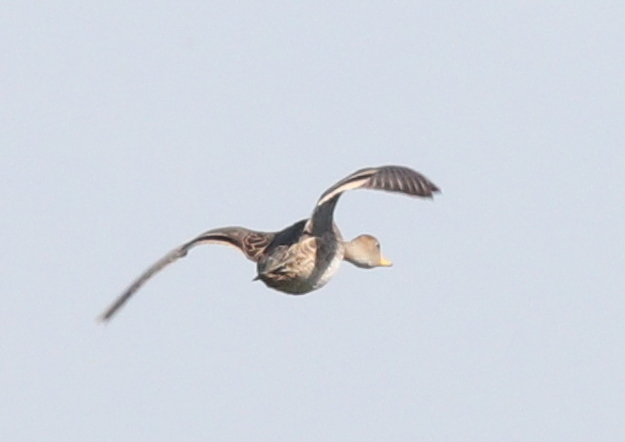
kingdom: Animalia
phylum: Chordata
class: Aves
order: Anseriformes
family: Anatidae
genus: Anas
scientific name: Anas georgica
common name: Yellow-billed pintail
